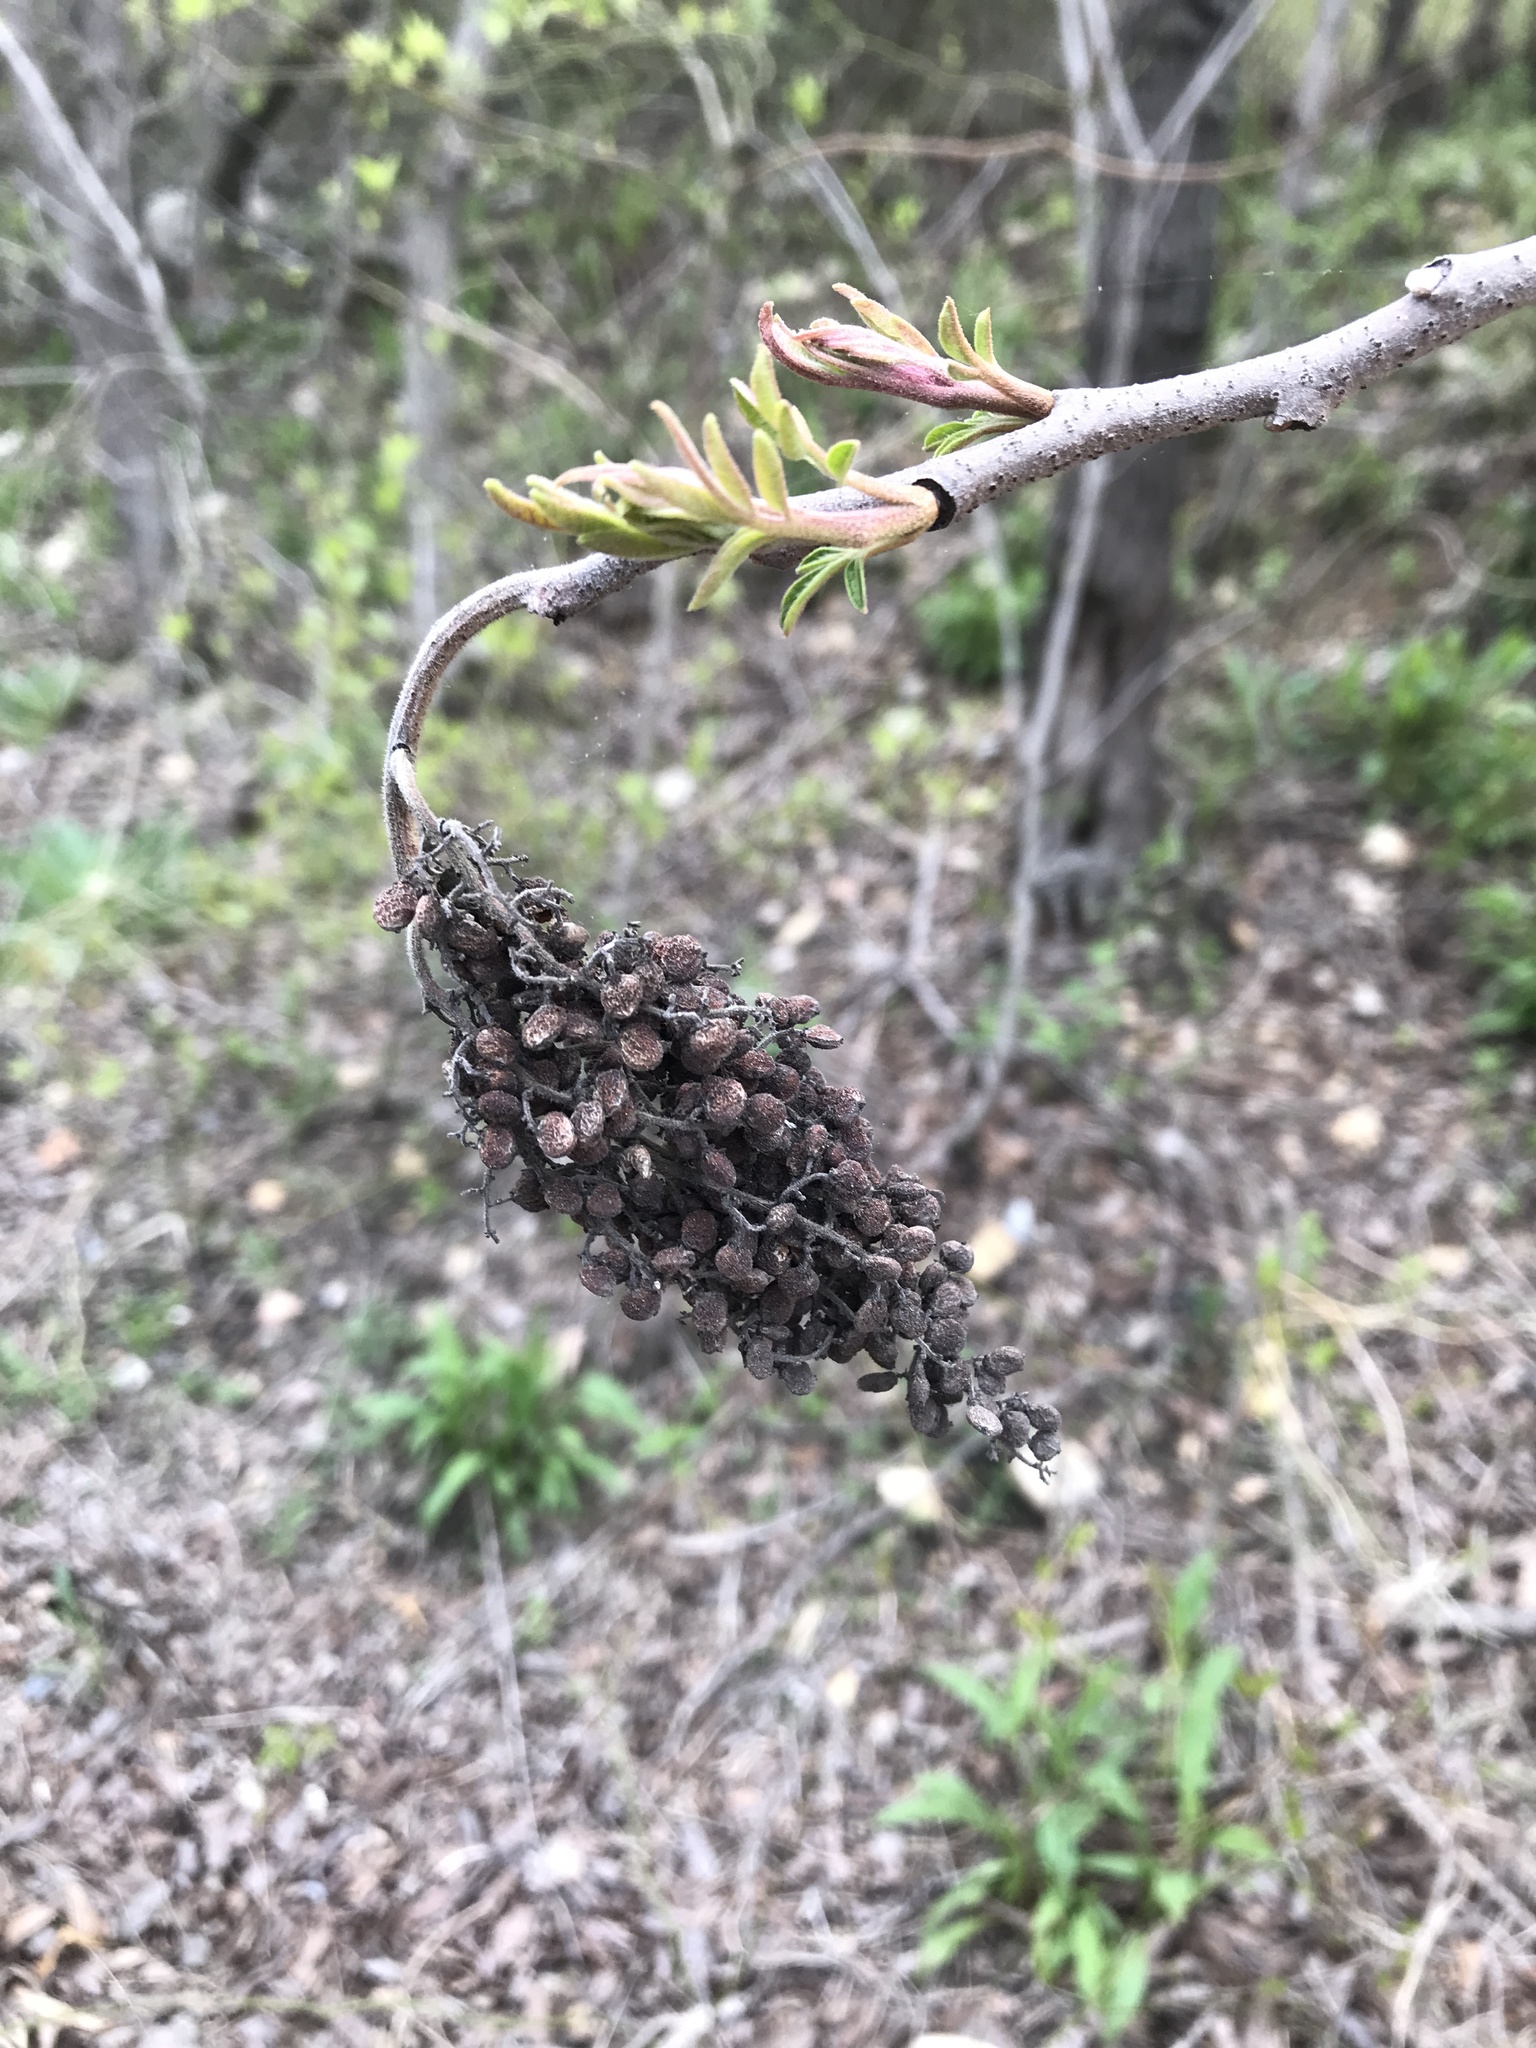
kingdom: Plantae
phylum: Tracheophyta
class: Magnoliopsida
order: Sapindales
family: Anacardiaceae
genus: Rhus
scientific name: Rhus copallina
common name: Shining sumac
